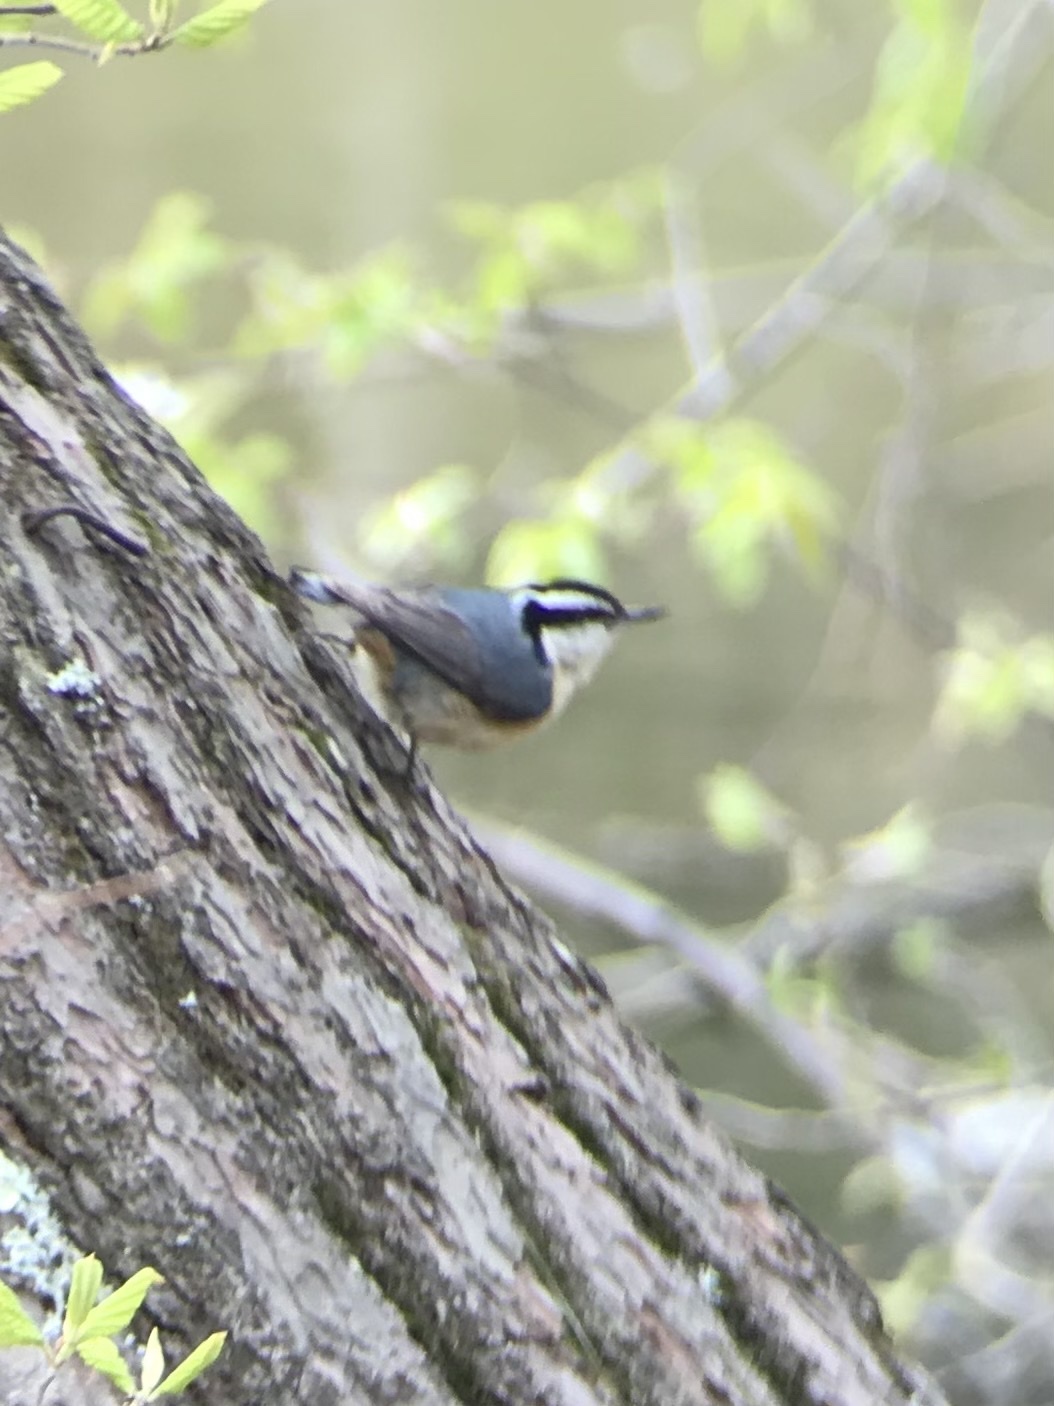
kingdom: Animalia
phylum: Chordata
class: Aves
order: Passeriformes
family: Sittidae
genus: Sitta
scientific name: Sitta canadensis
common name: Red-breasted nuthatch
